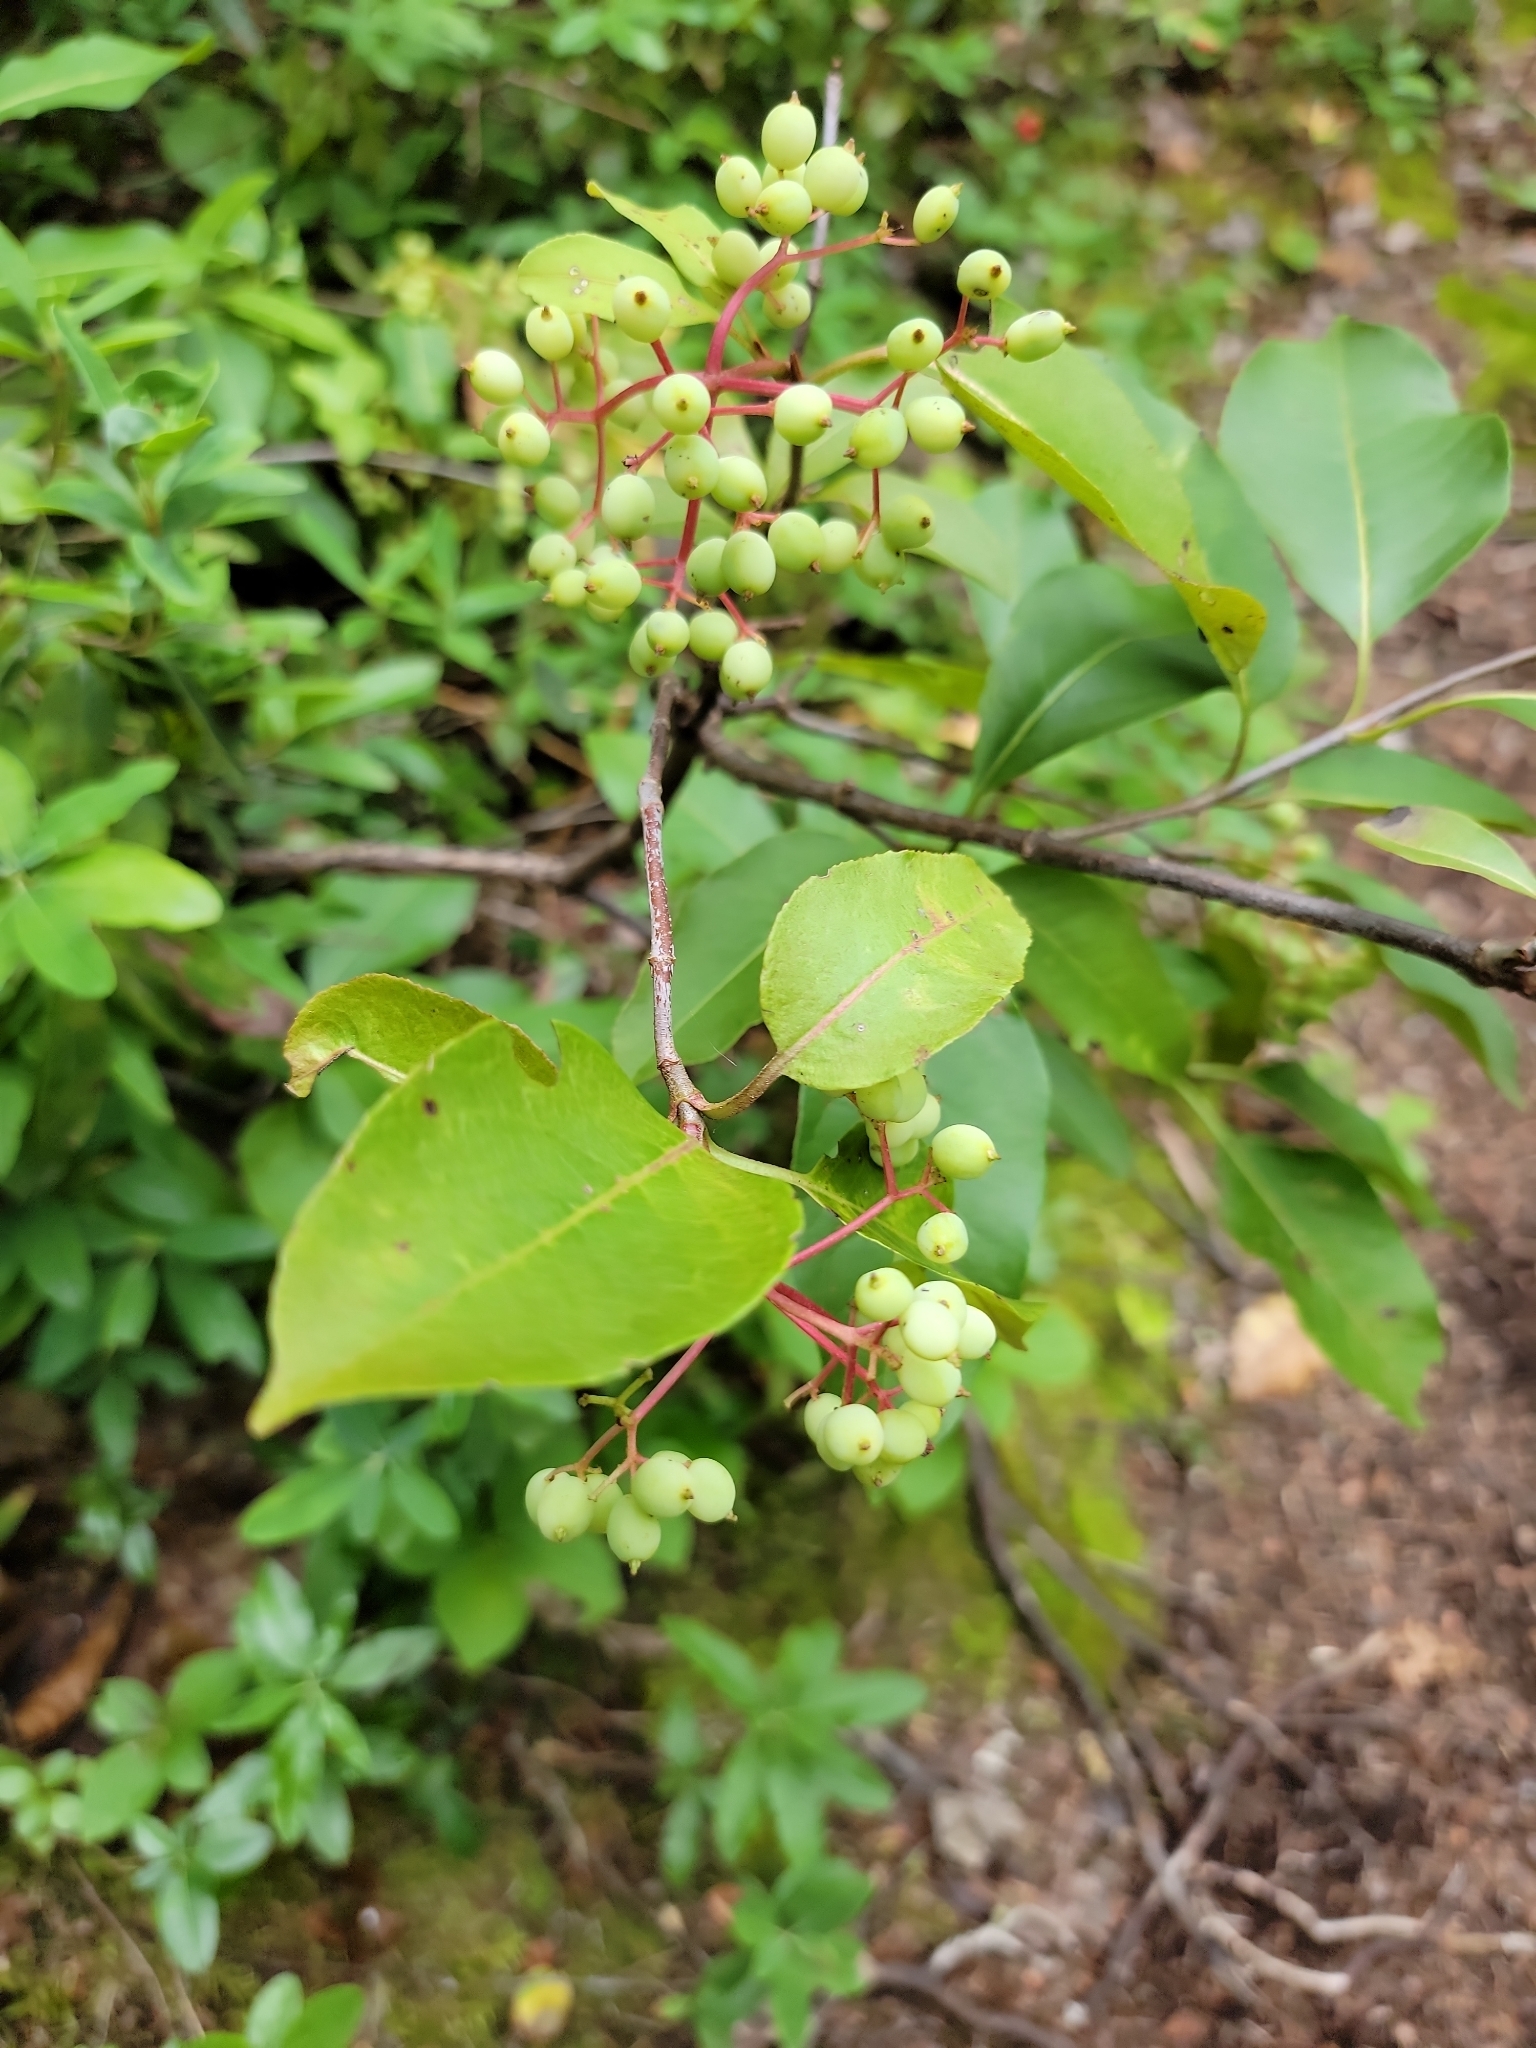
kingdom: Plantae
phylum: Tracheophyta
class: Magnoliopsida
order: Dipsacales
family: Viburnaceae
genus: Viburnum
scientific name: Viburnum cassinoides
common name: Swamp haw
